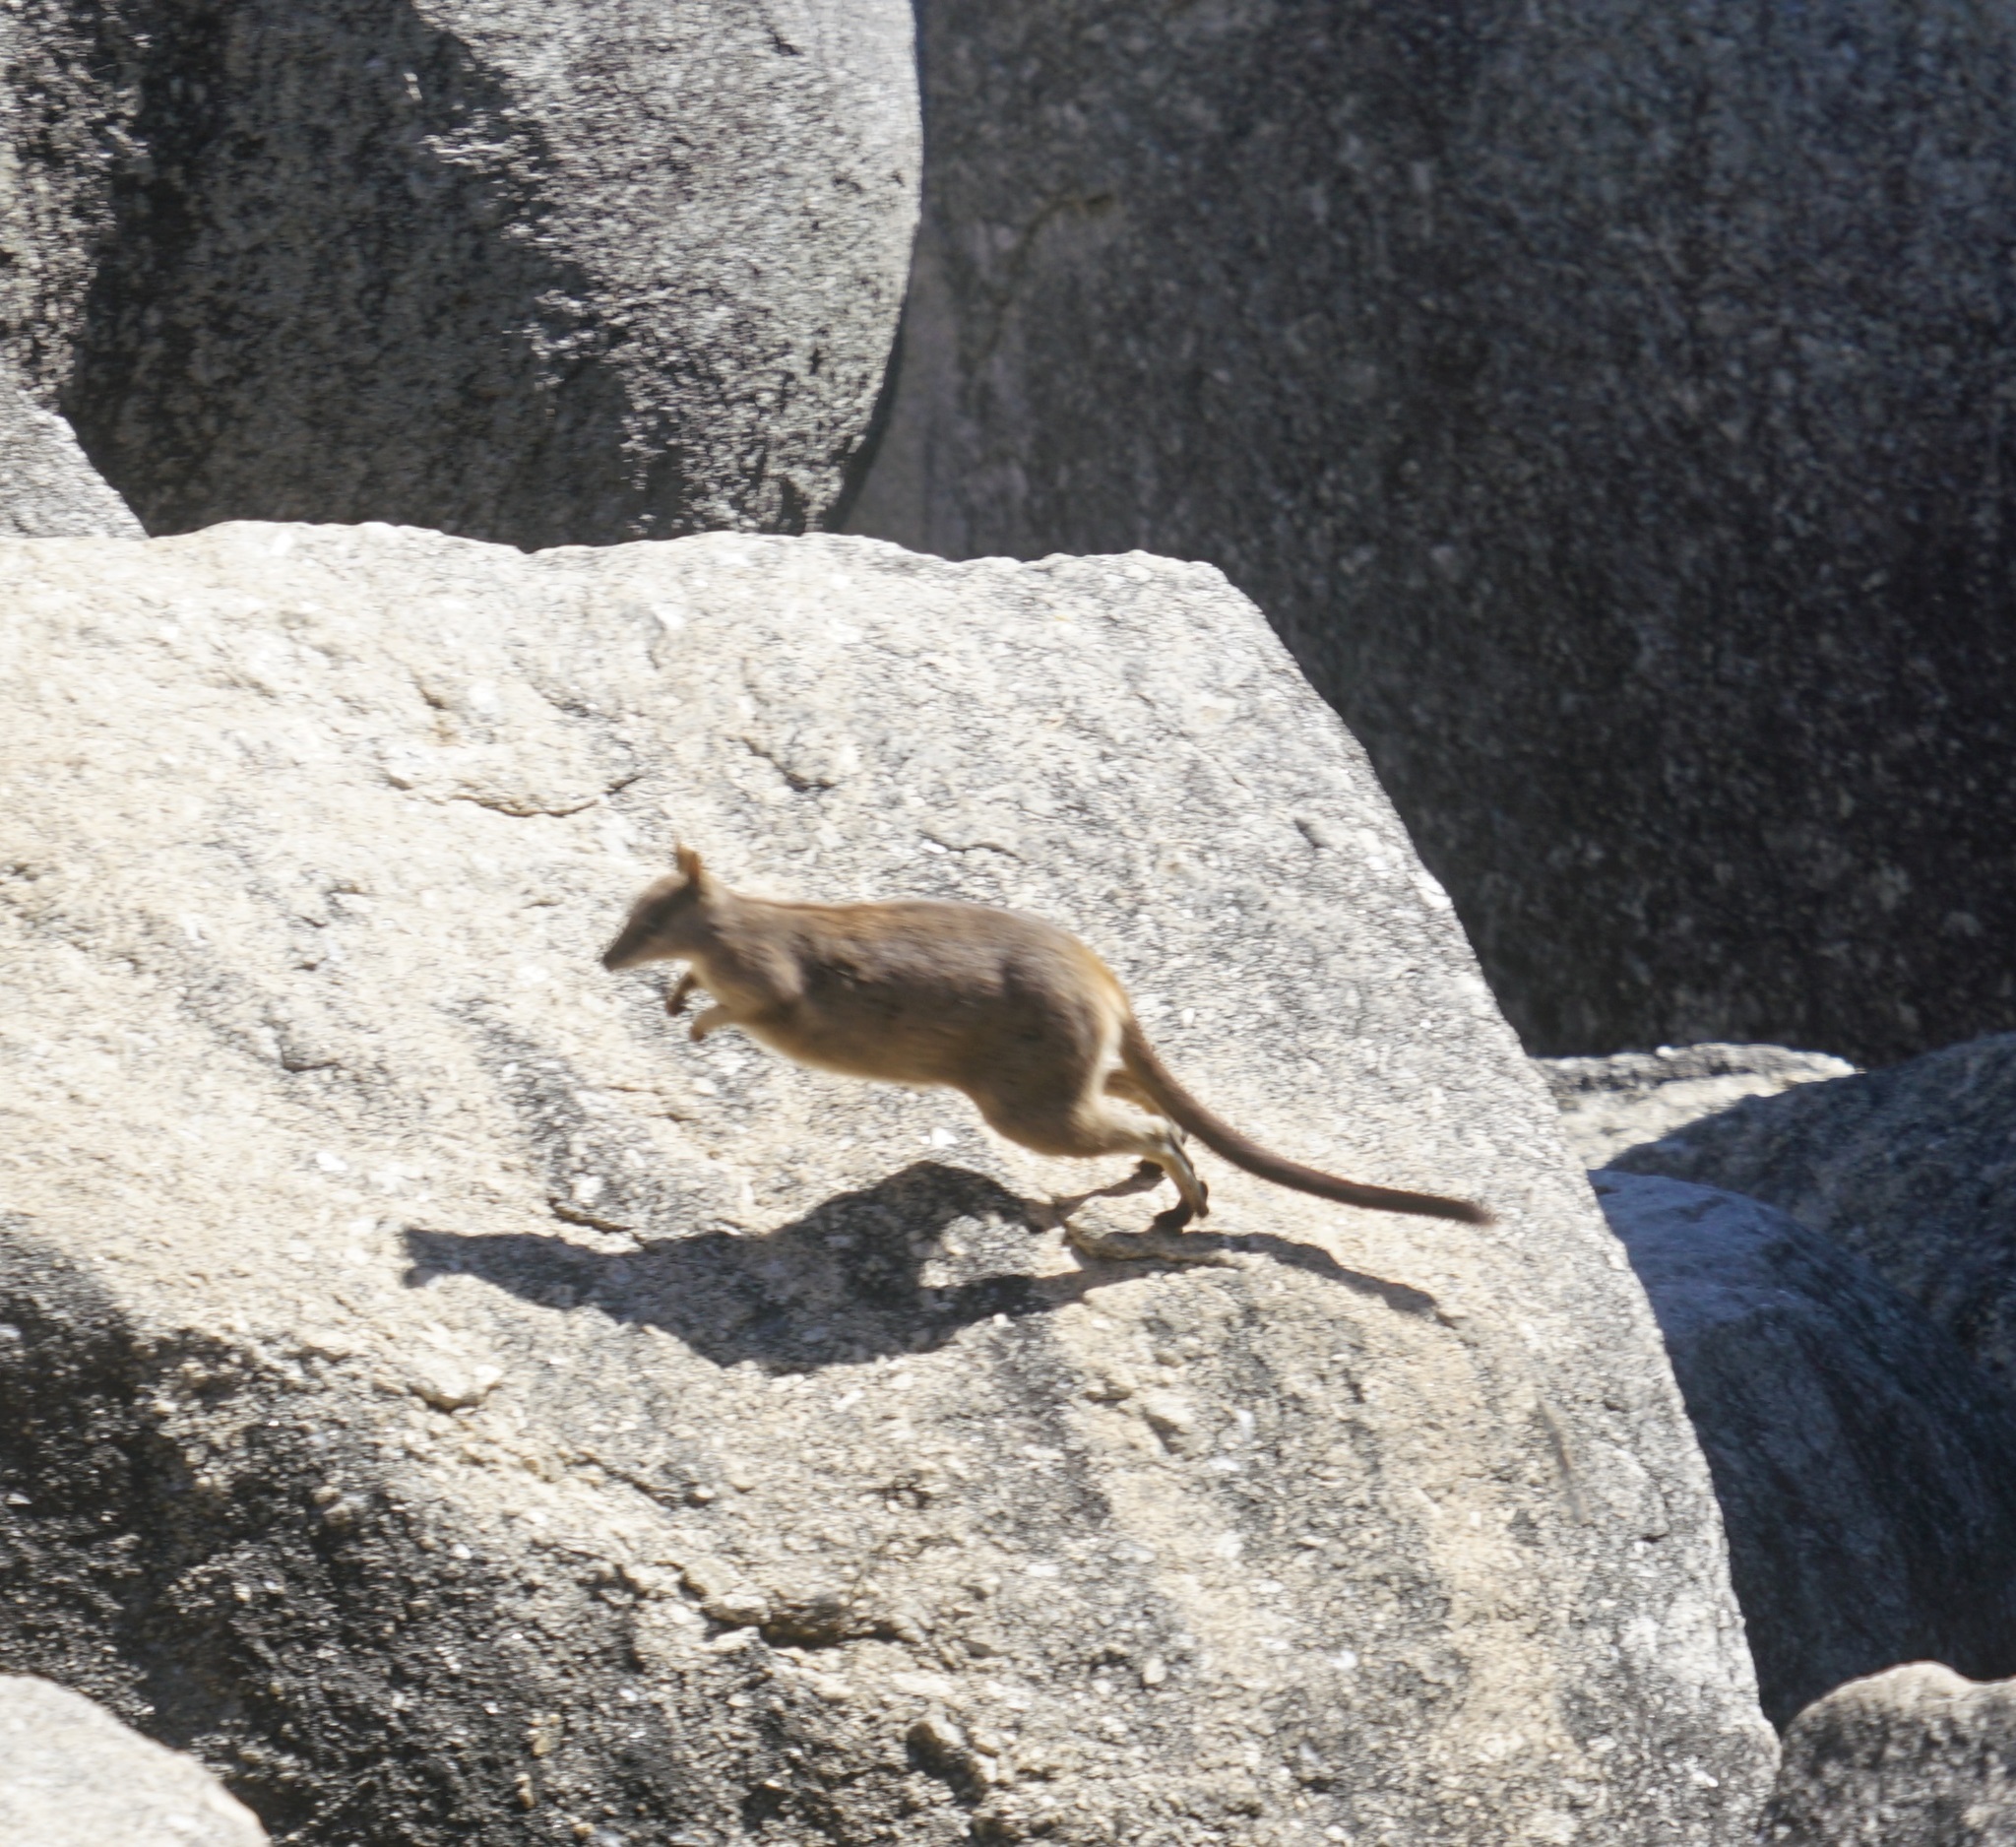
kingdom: Animalia
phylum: Chordata
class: Mammalia
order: Diprotodontia
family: Macropodidae
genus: Petrogale
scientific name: Petrogale mareeba
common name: Mareeba rock-wallaby
